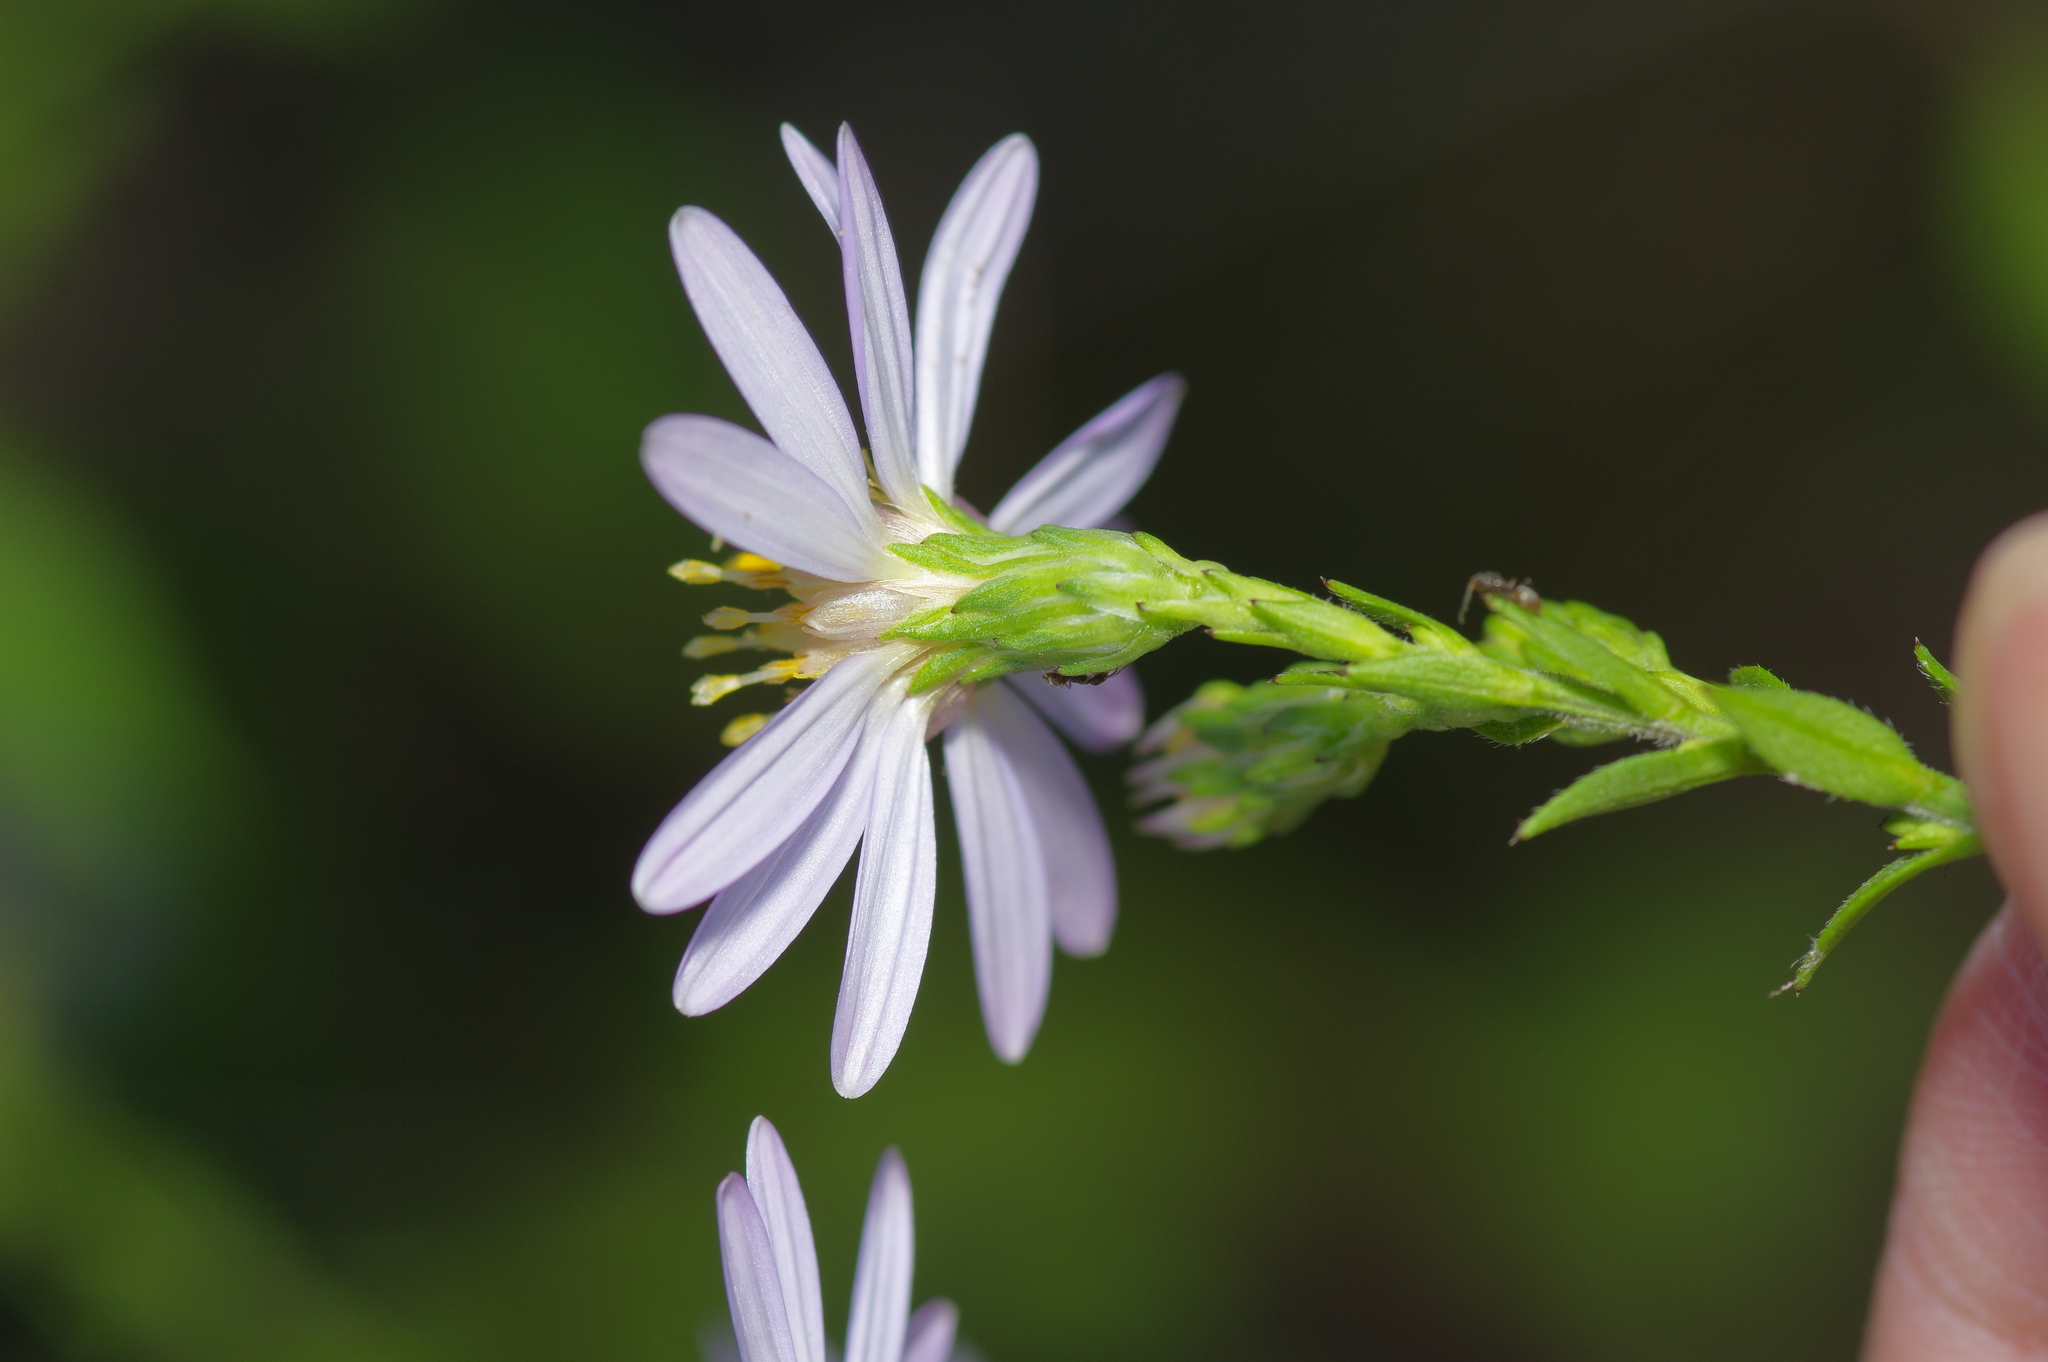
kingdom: Plantae
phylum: Tracheophyta
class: Magnoliopsida
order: Asterales
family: Asteraceae
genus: Symphyotrichum
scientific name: Symphyotrichum drummondii
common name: Drummond's aster
